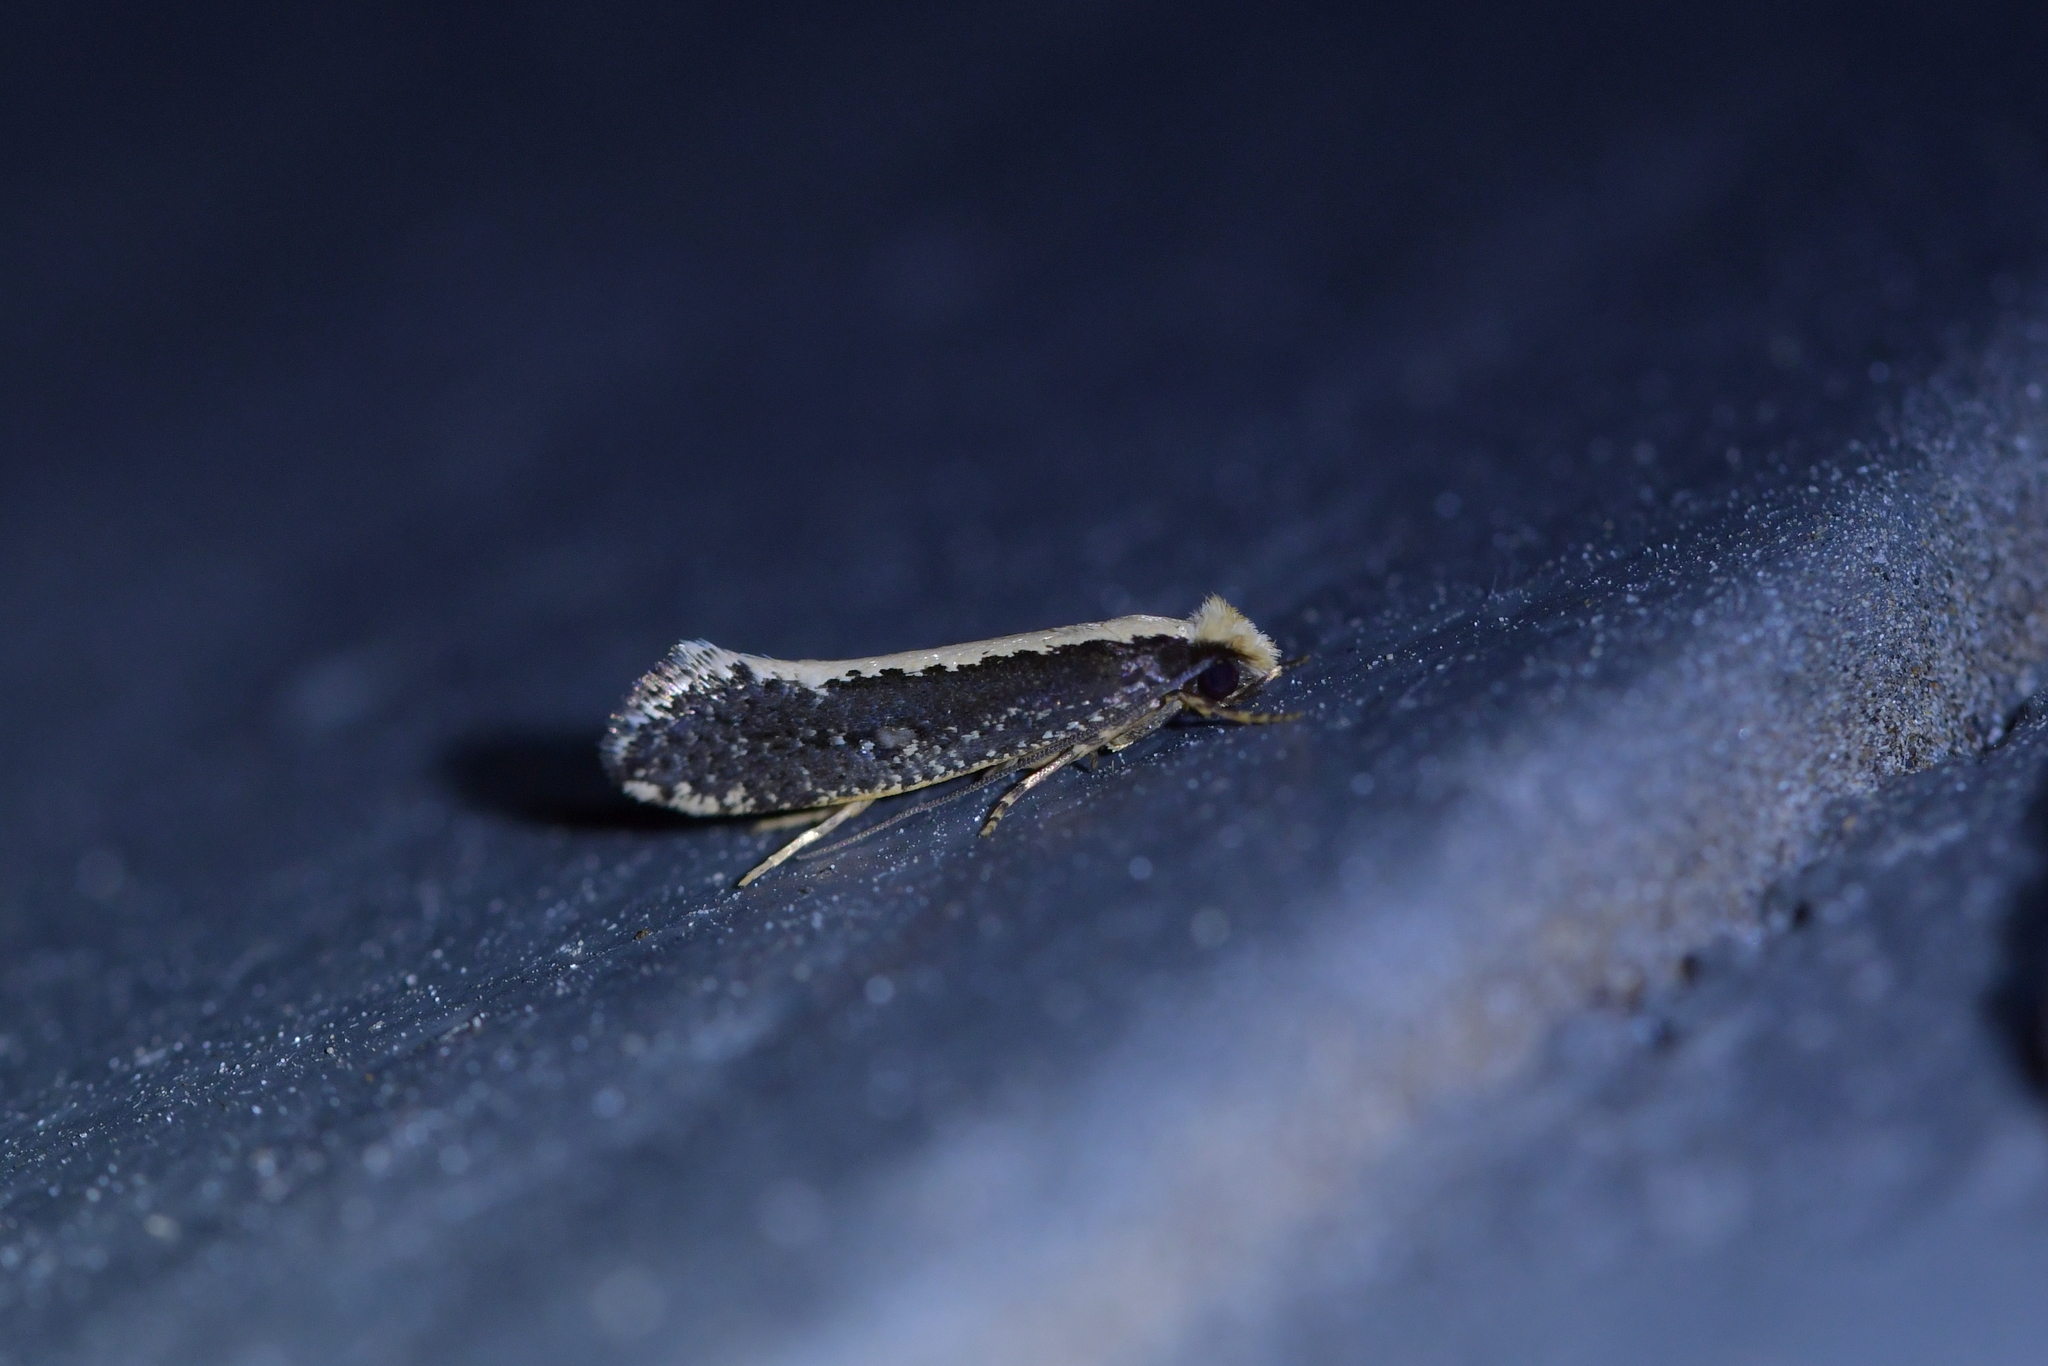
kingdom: Animalia
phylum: Arthropoda
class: Insecta
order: Lepidoptera
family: Tineidae
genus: Monopis
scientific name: Monopis ethelella
